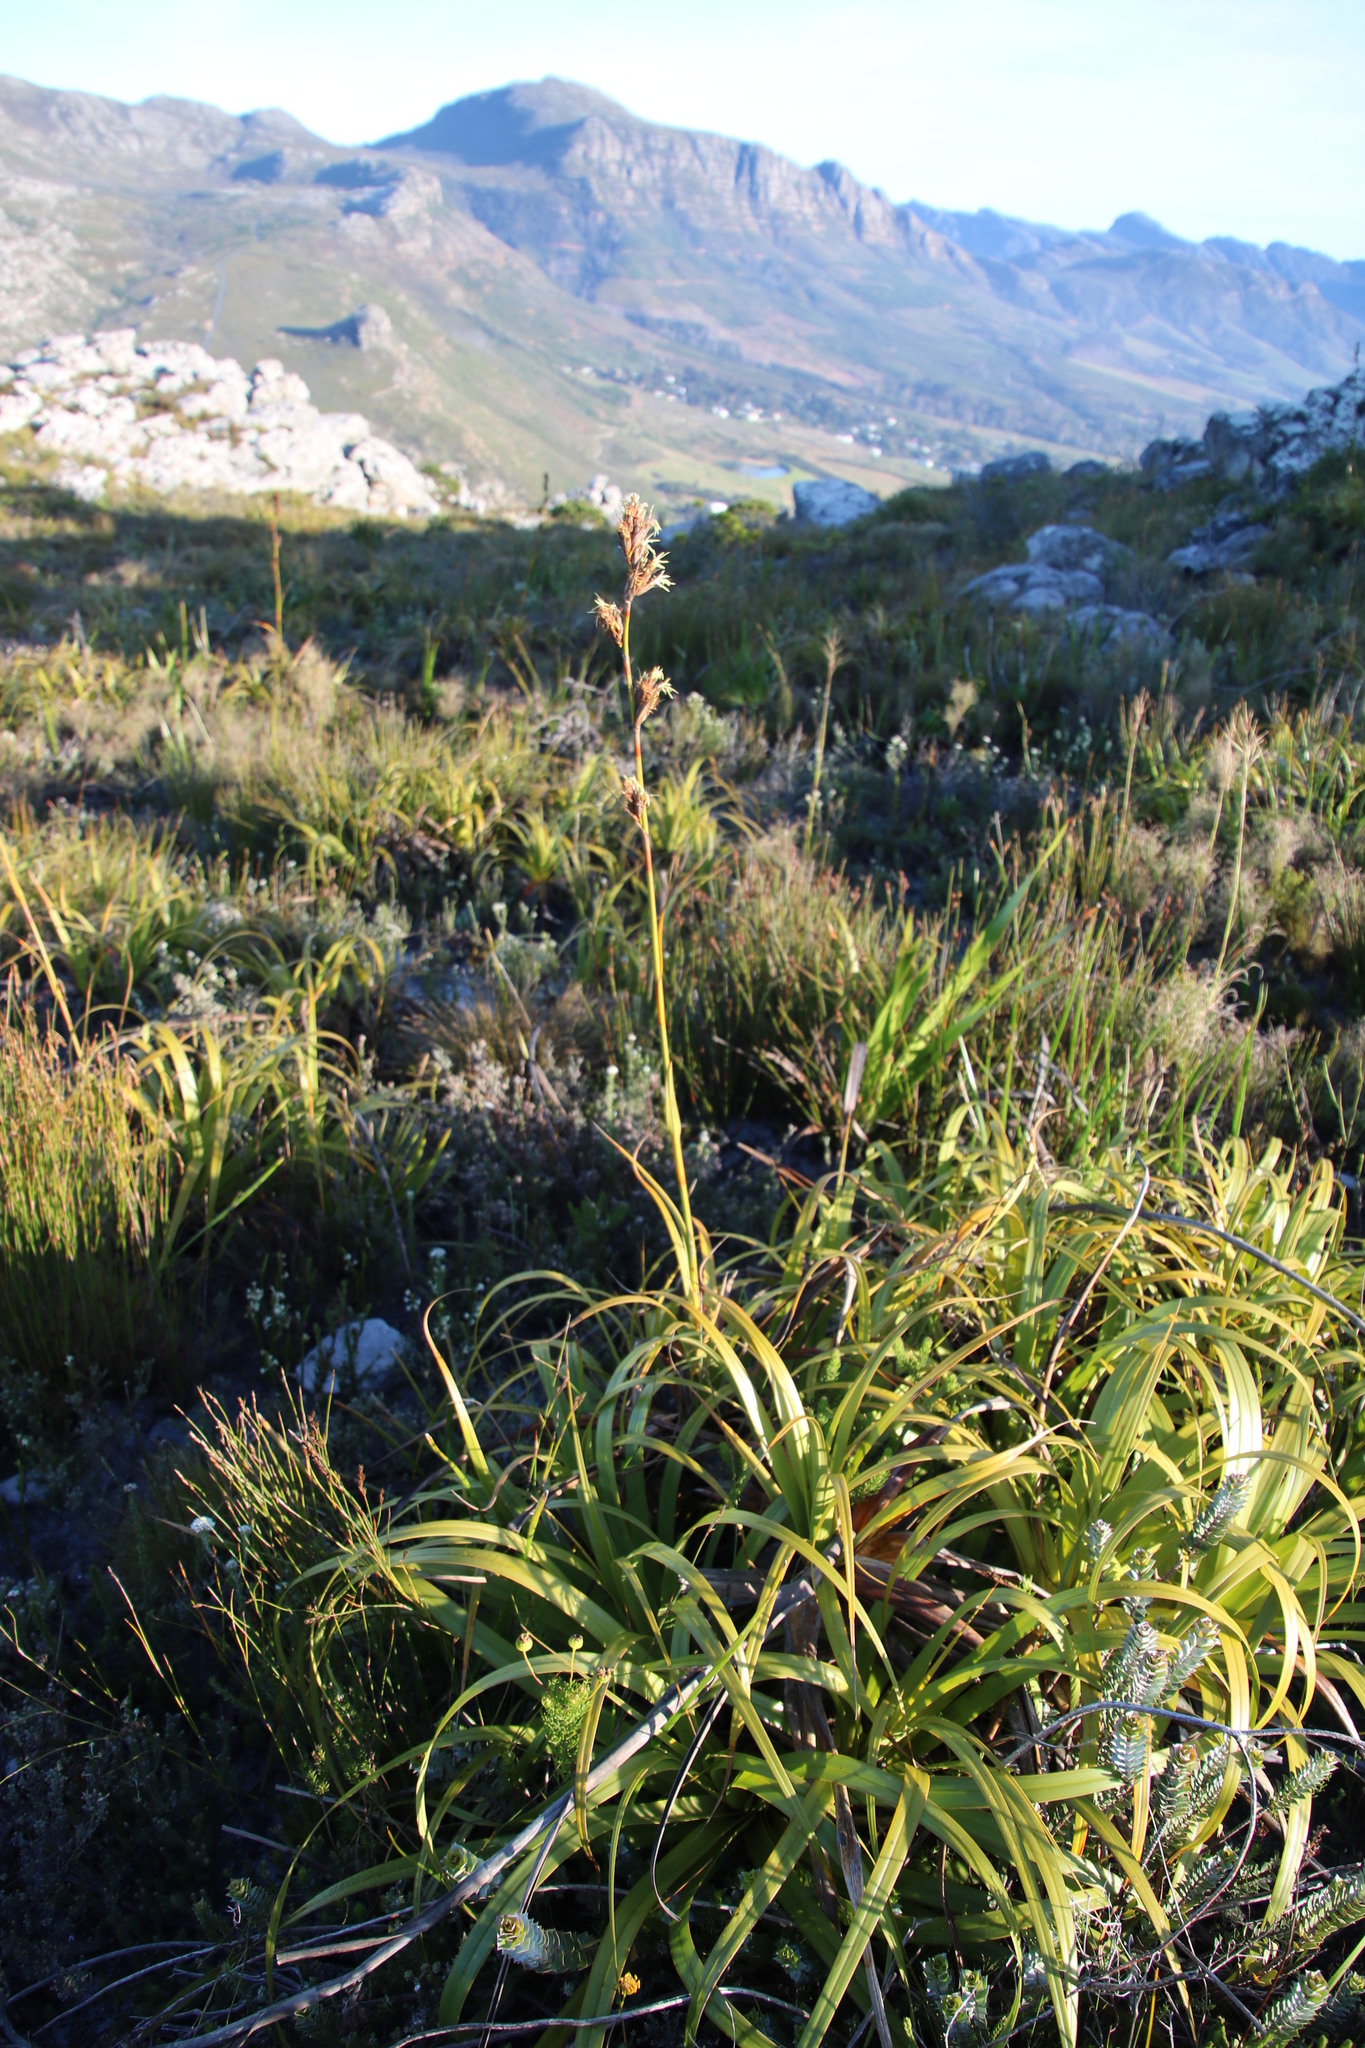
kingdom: Plantae
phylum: Tracheophyta
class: Liliopsida
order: Poales
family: Cyperaceae
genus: Tetraria
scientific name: Tetraria thermalis
